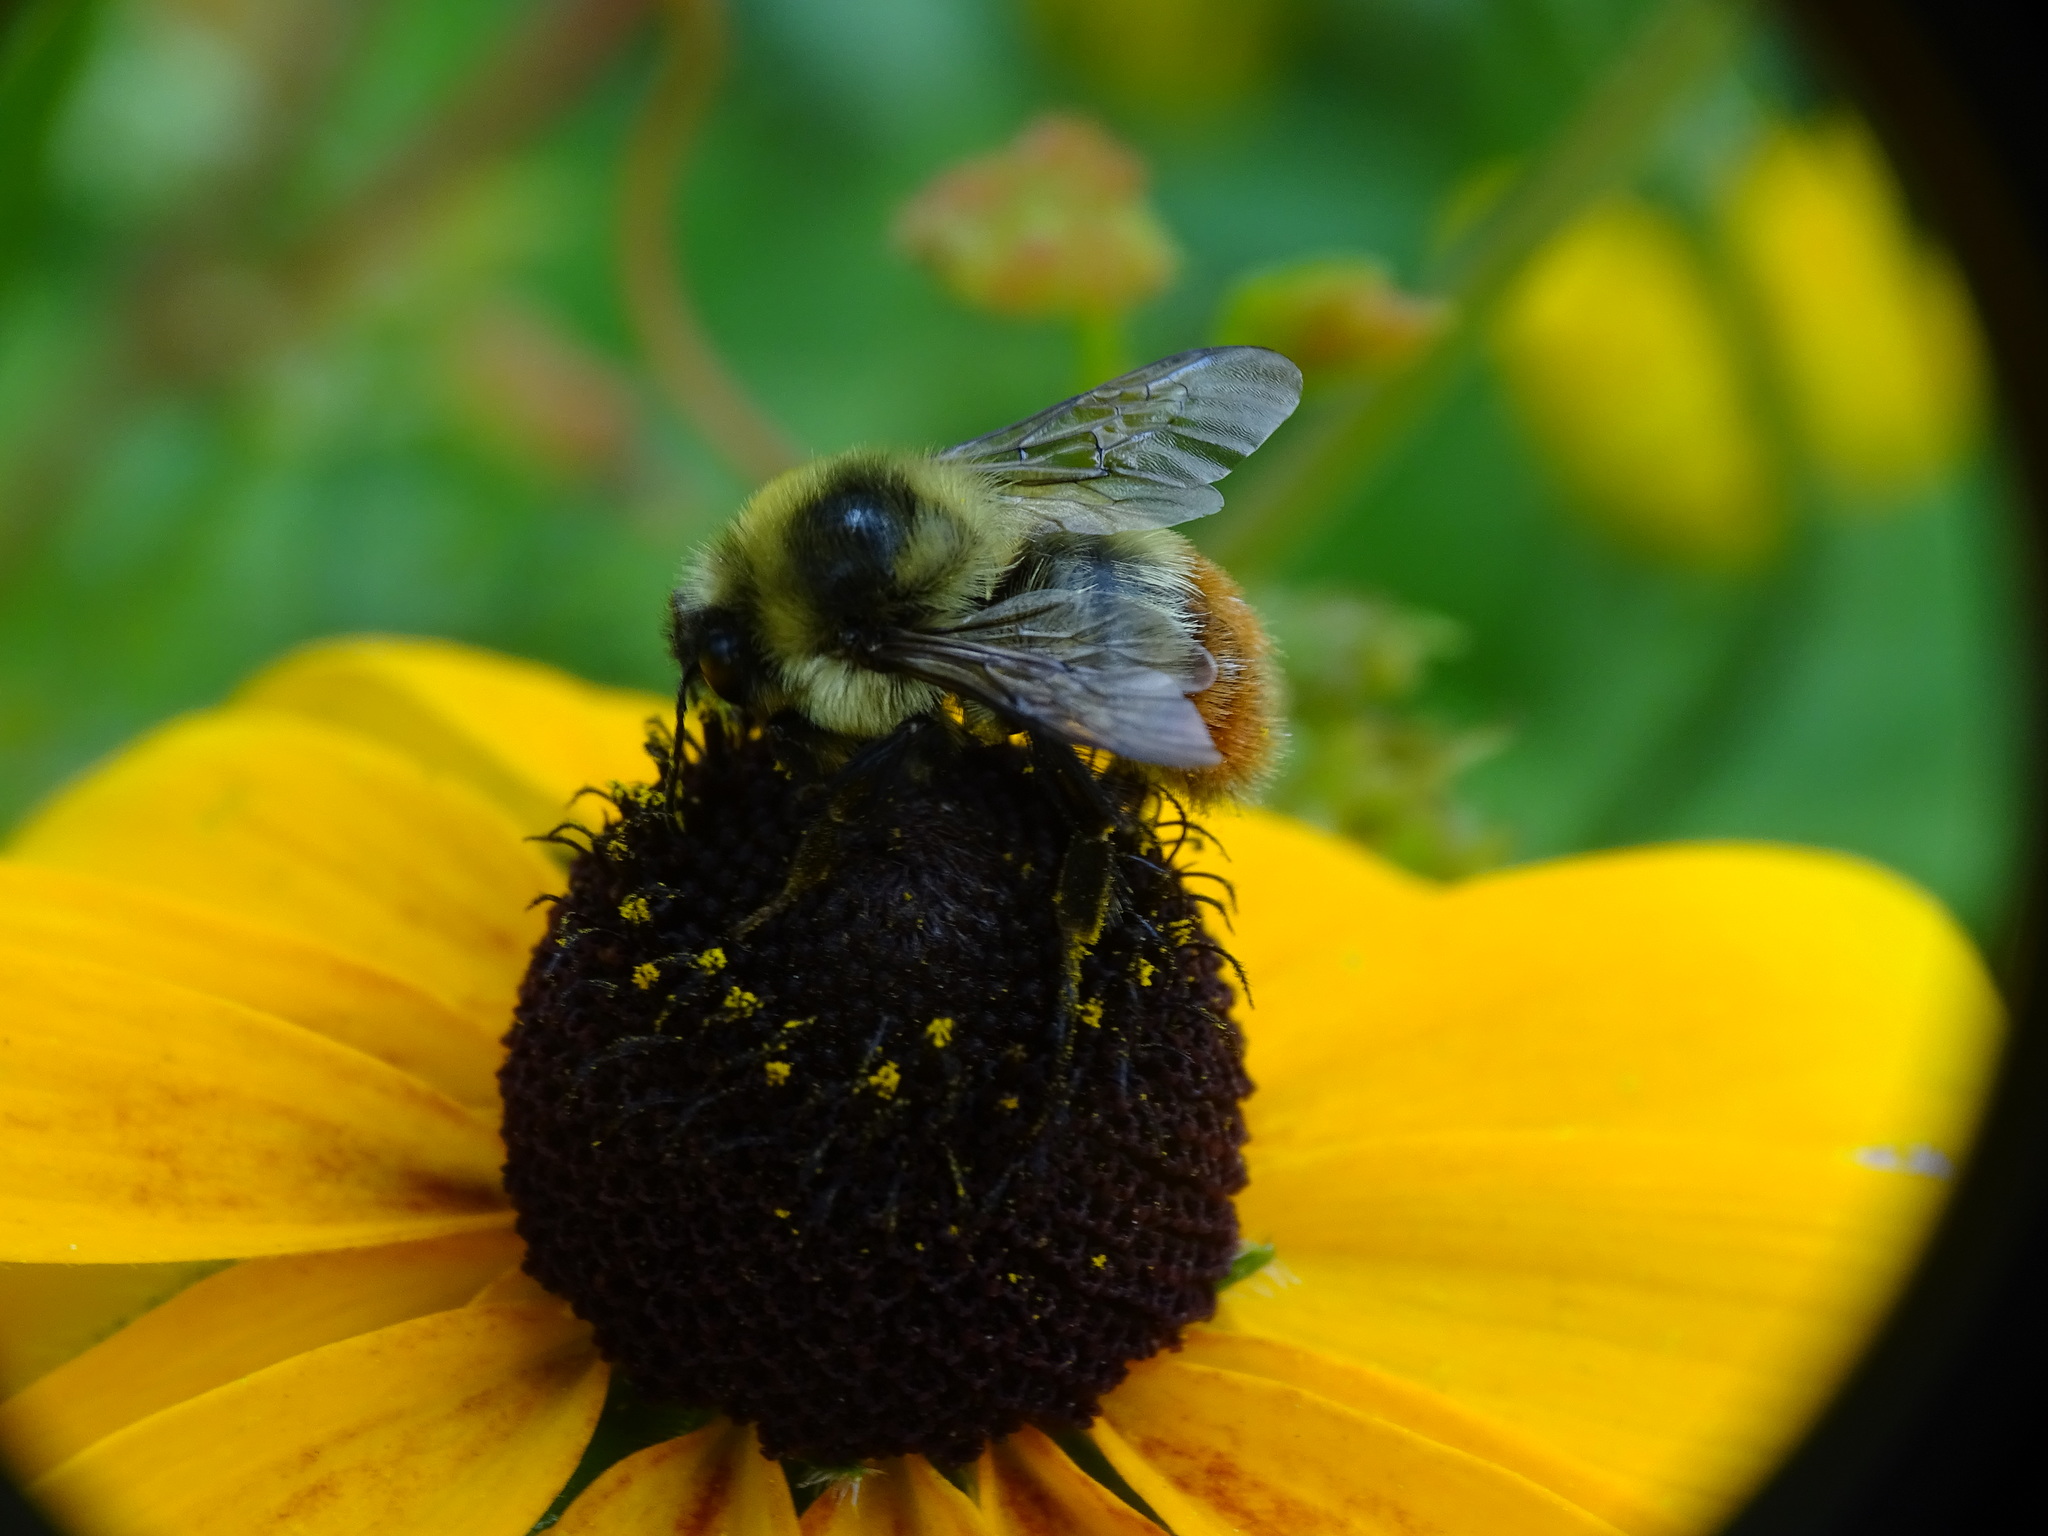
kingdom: Animalia
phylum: Arthropoda
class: Insecta
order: Hymenoptera
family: Apidae
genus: Bombus
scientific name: Bombus rufocinctus
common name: Red-belted bumble bee
